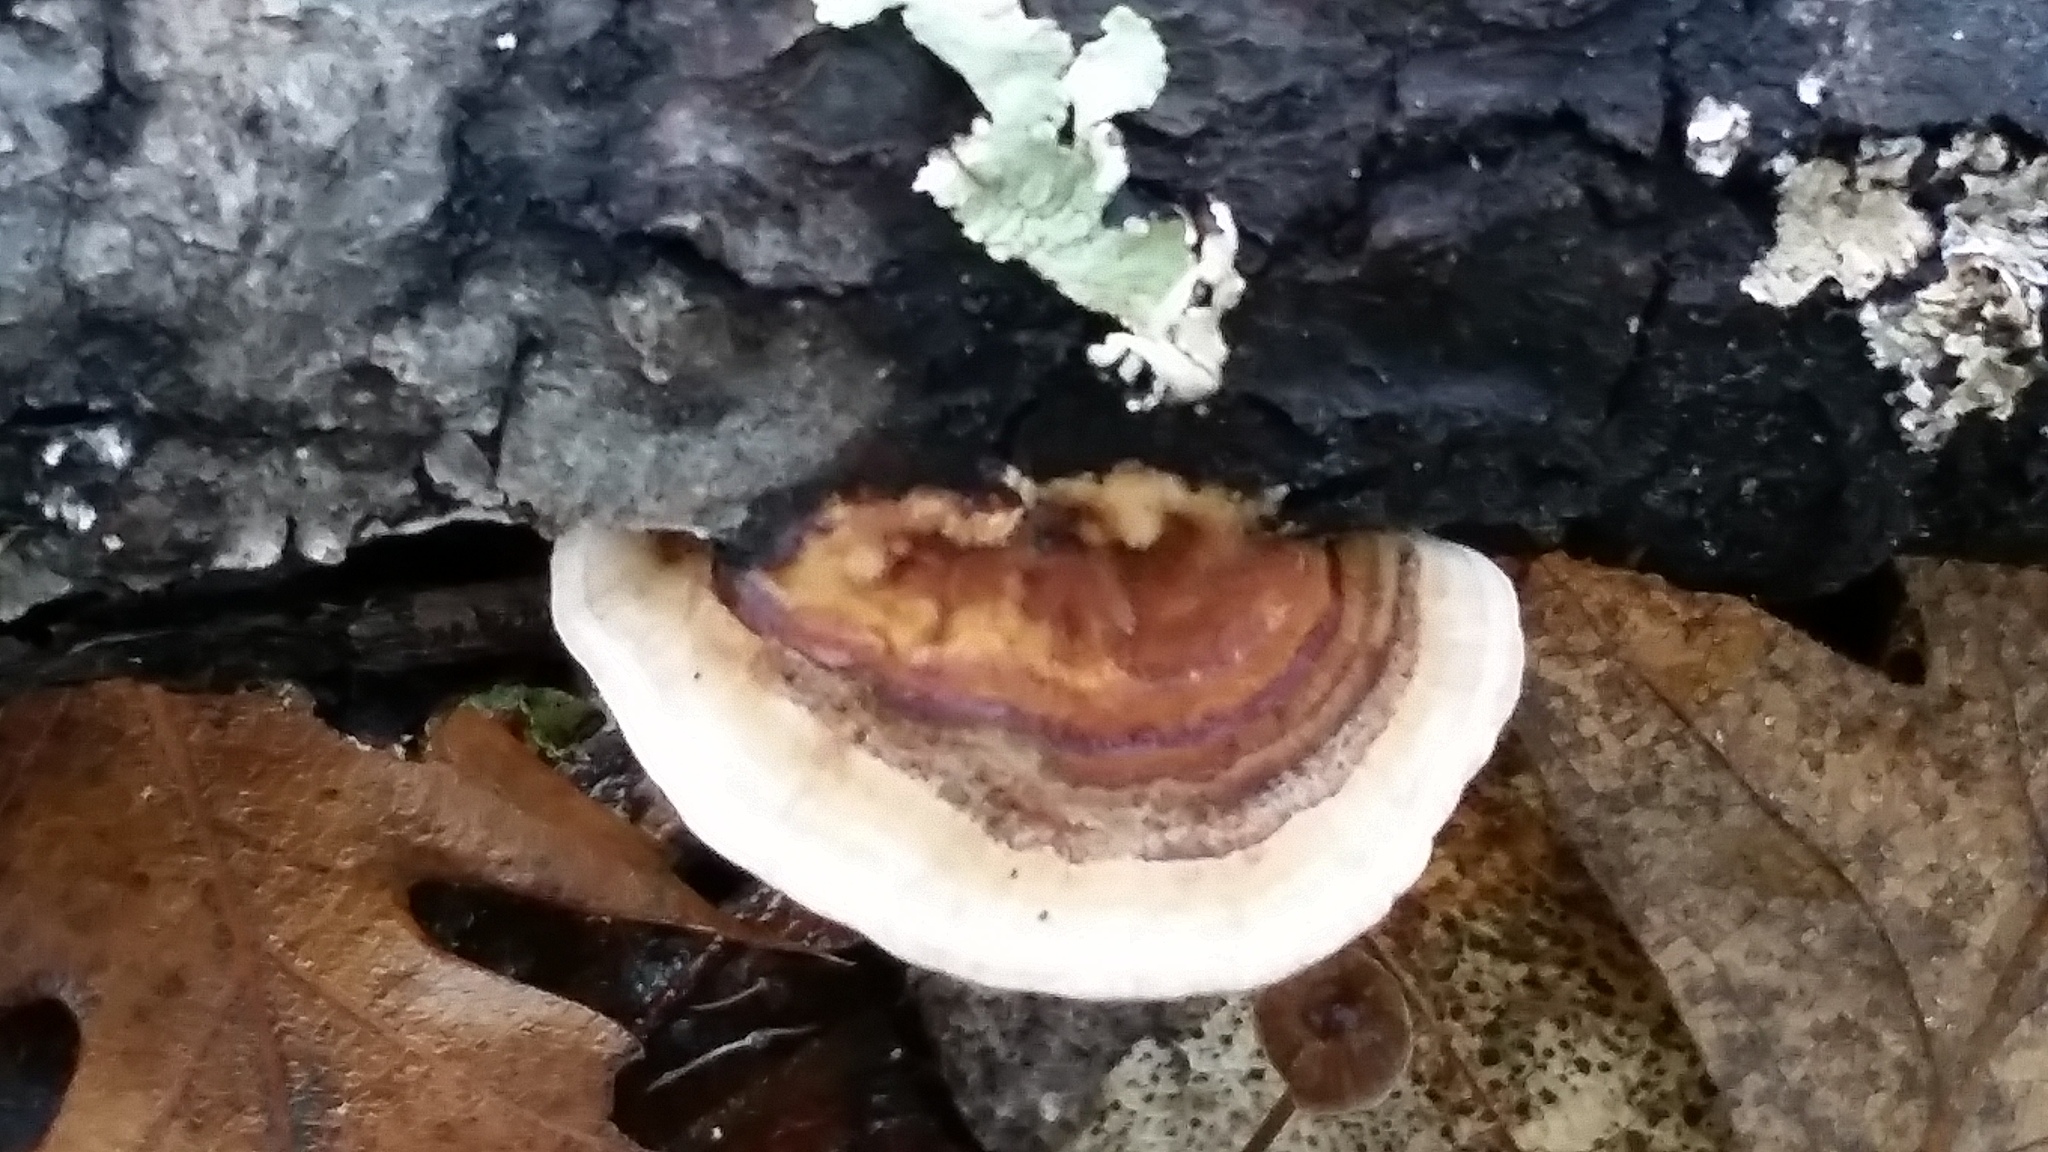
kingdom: Fungi
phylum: Basidiomycota
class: Agaricomycetes
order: Polyporales
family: Polyporaceae
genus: Trametes
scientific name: Trametes versicolor
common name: Turkeytail
